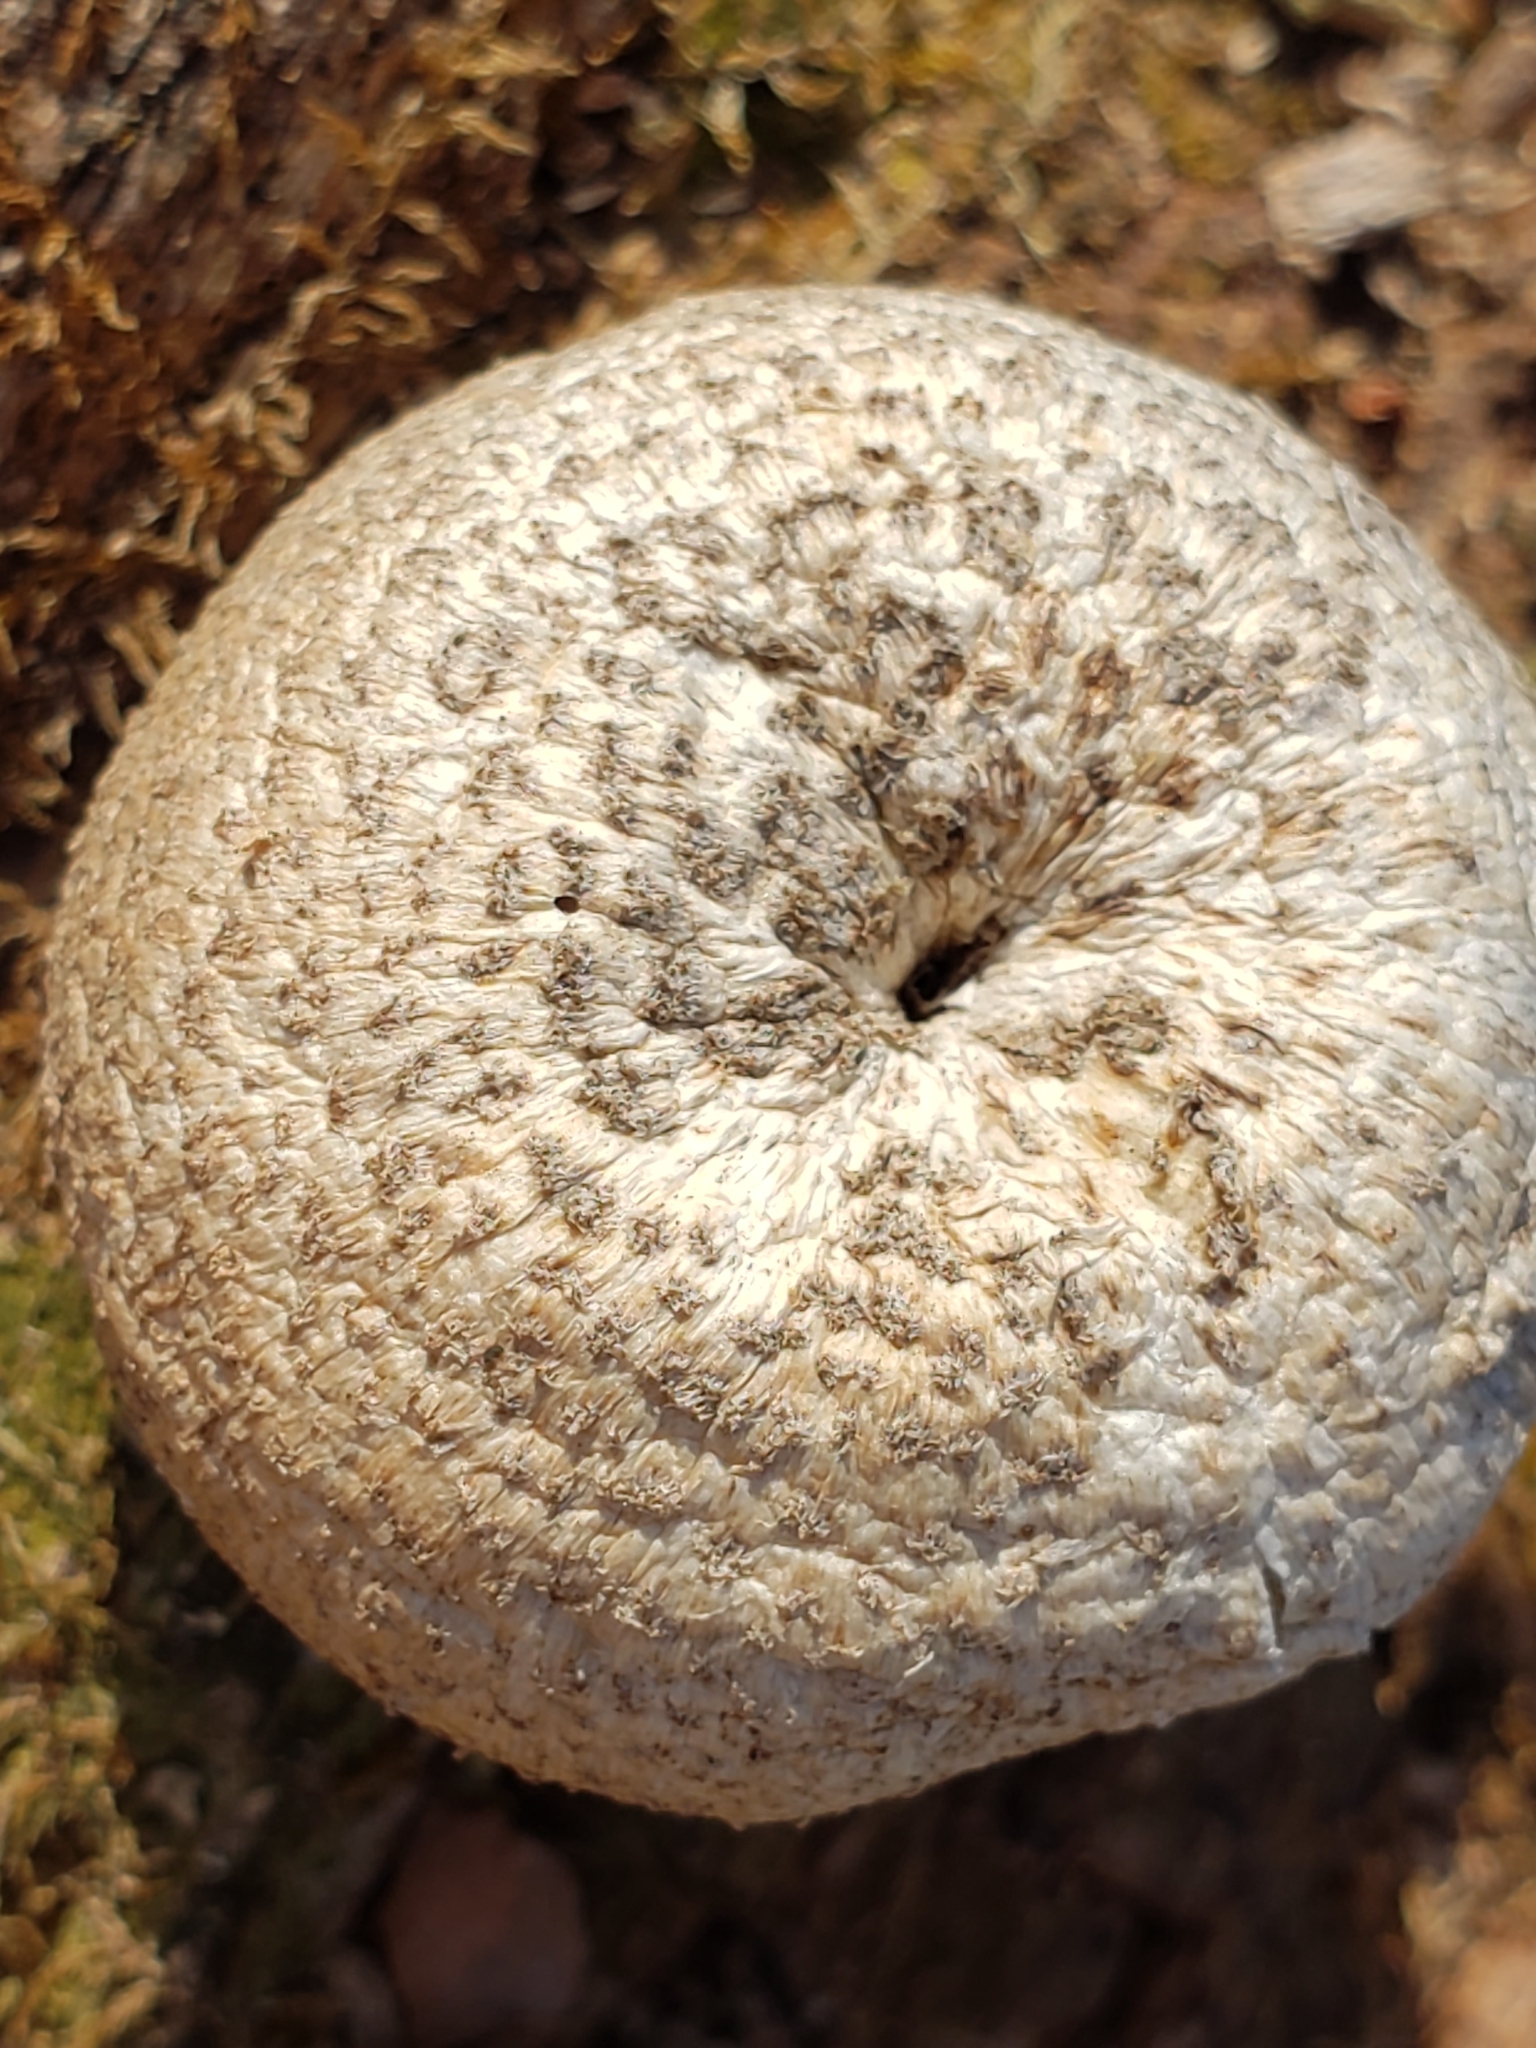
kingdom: Fungi
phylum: Basidiomycota
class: Agaricomycetes
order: Polyporales
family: Polyporaceae
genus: Lentinus
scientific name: Lentinus tigrinus
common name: Tiger sawgill
